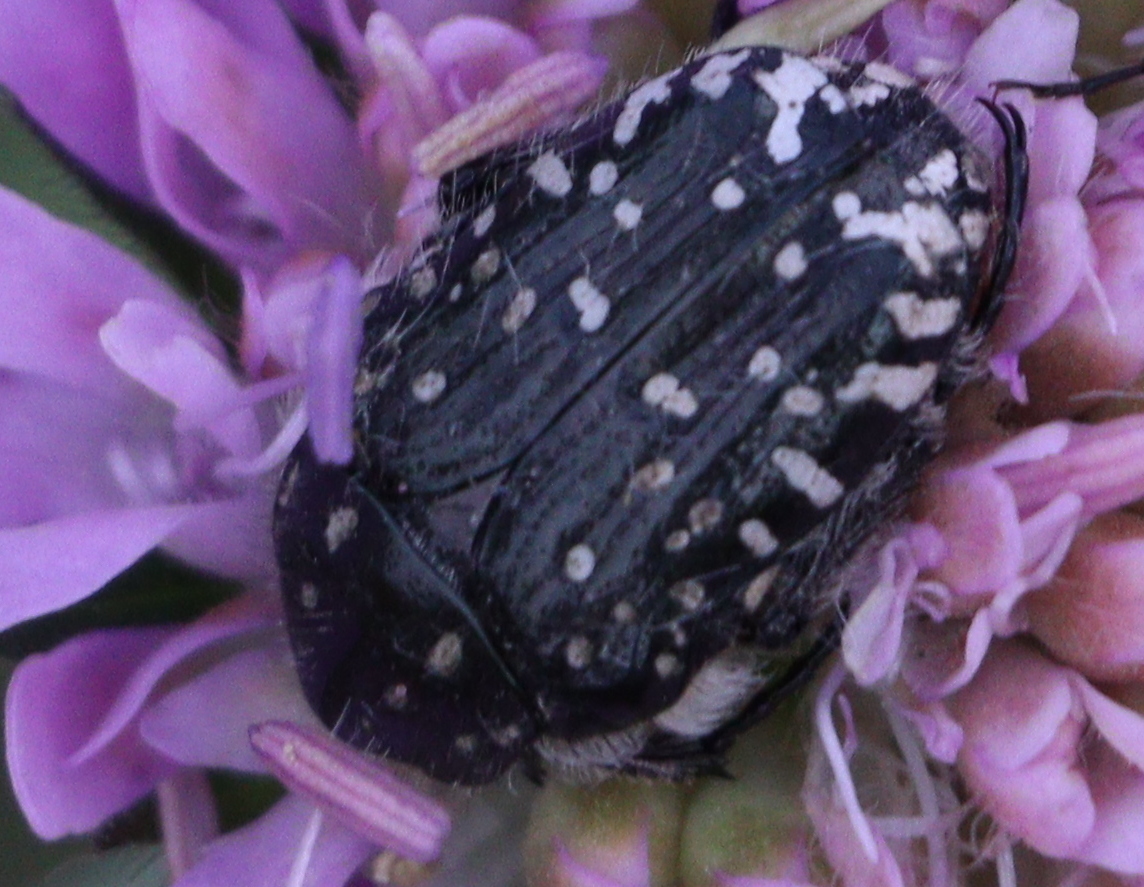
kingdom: Animalia
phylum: Arthropoda
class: Insecta
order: Coleoptera
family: Scarabaeidae
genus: Oxythyrea
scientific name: Oxythyrea funesta
